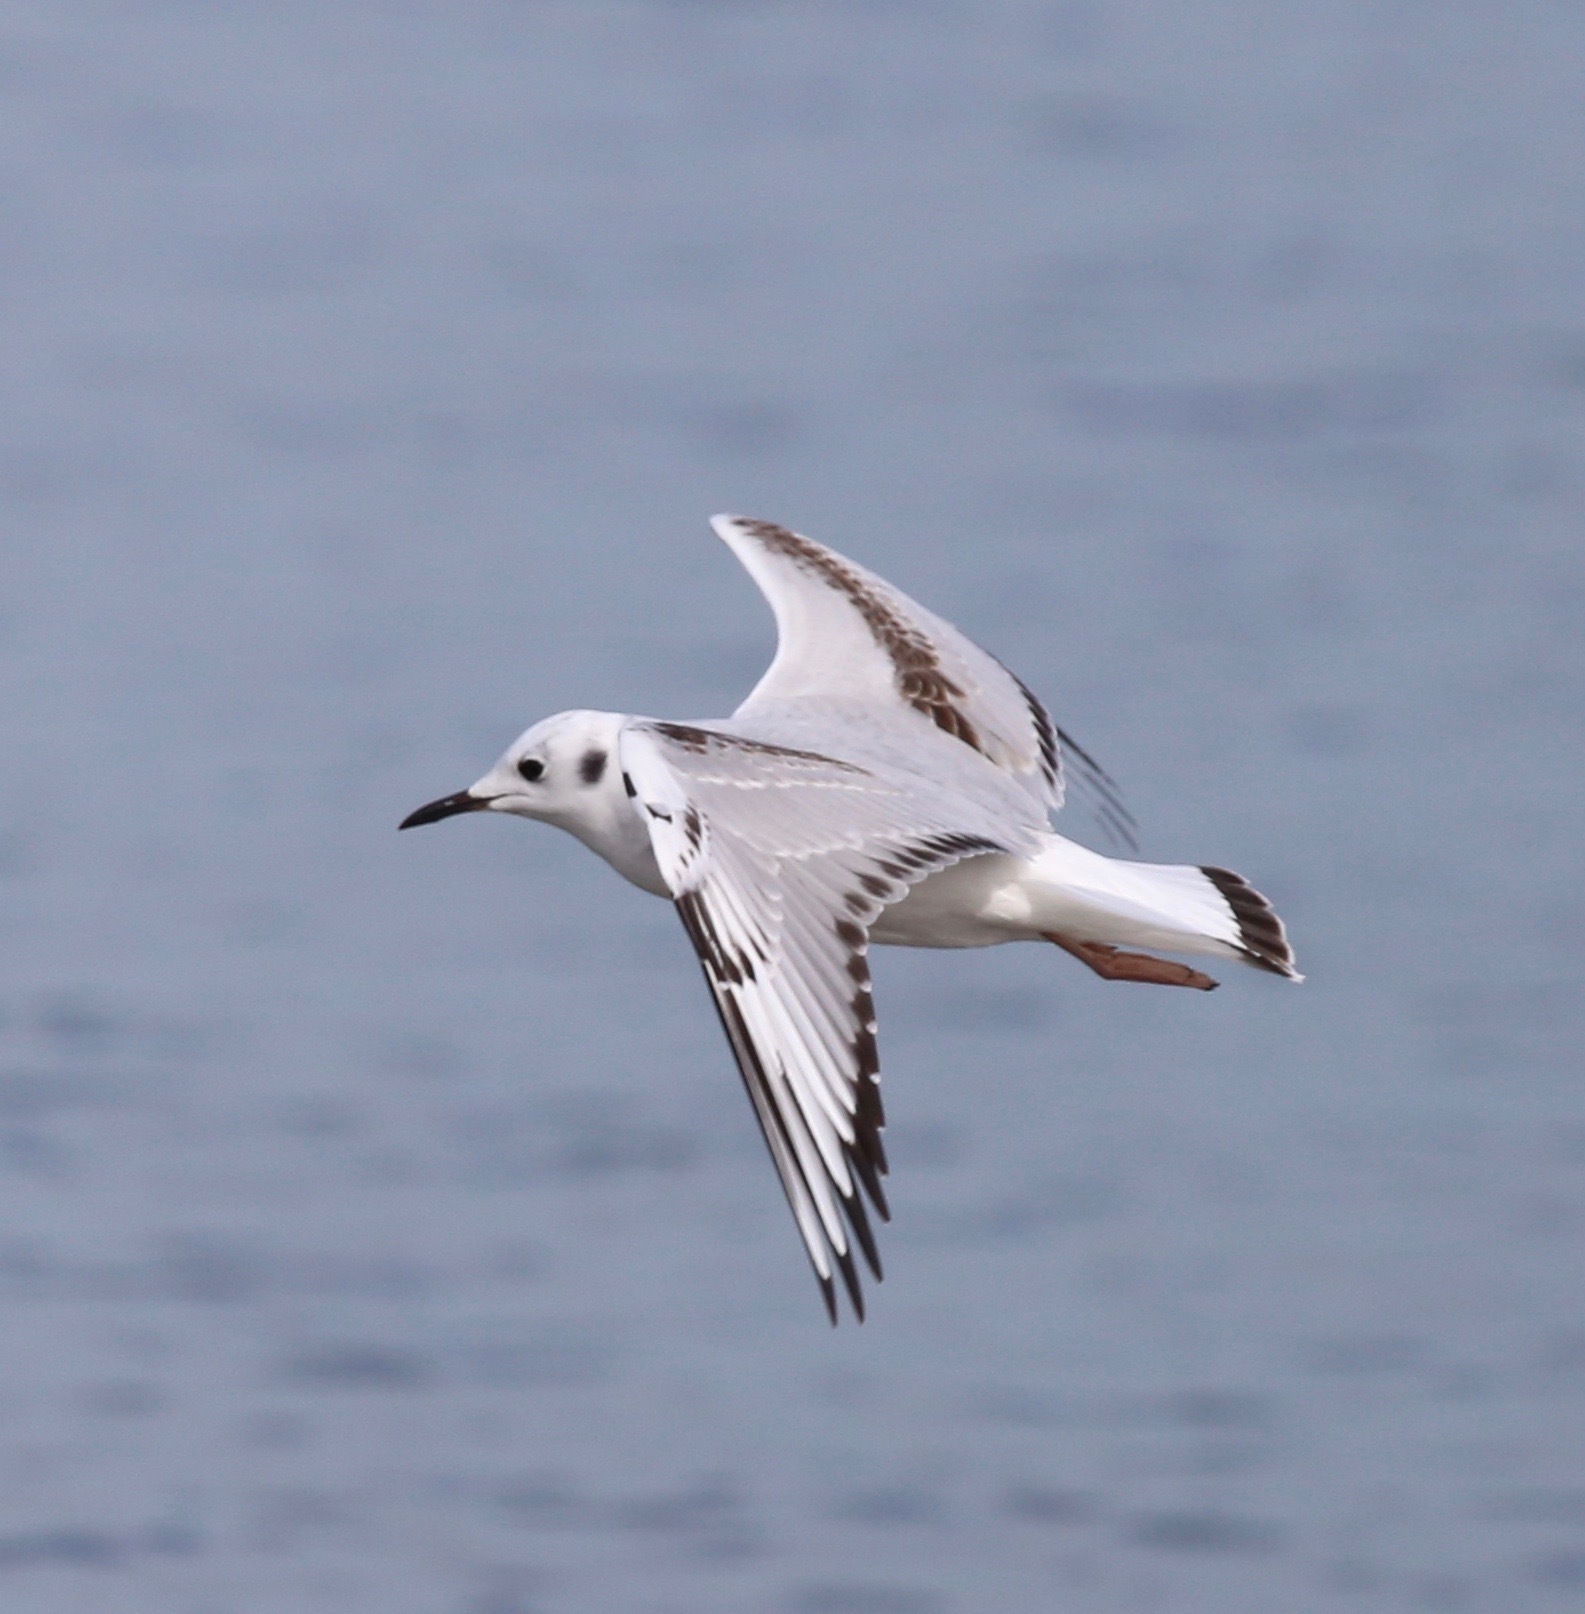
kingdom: Animalia
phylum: Chordata
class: Aves
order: Charadriiformes
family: Laridae
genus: Chroicocephalus
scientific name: Chroicocephalus philadelphia
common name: Bonaparte's gull
